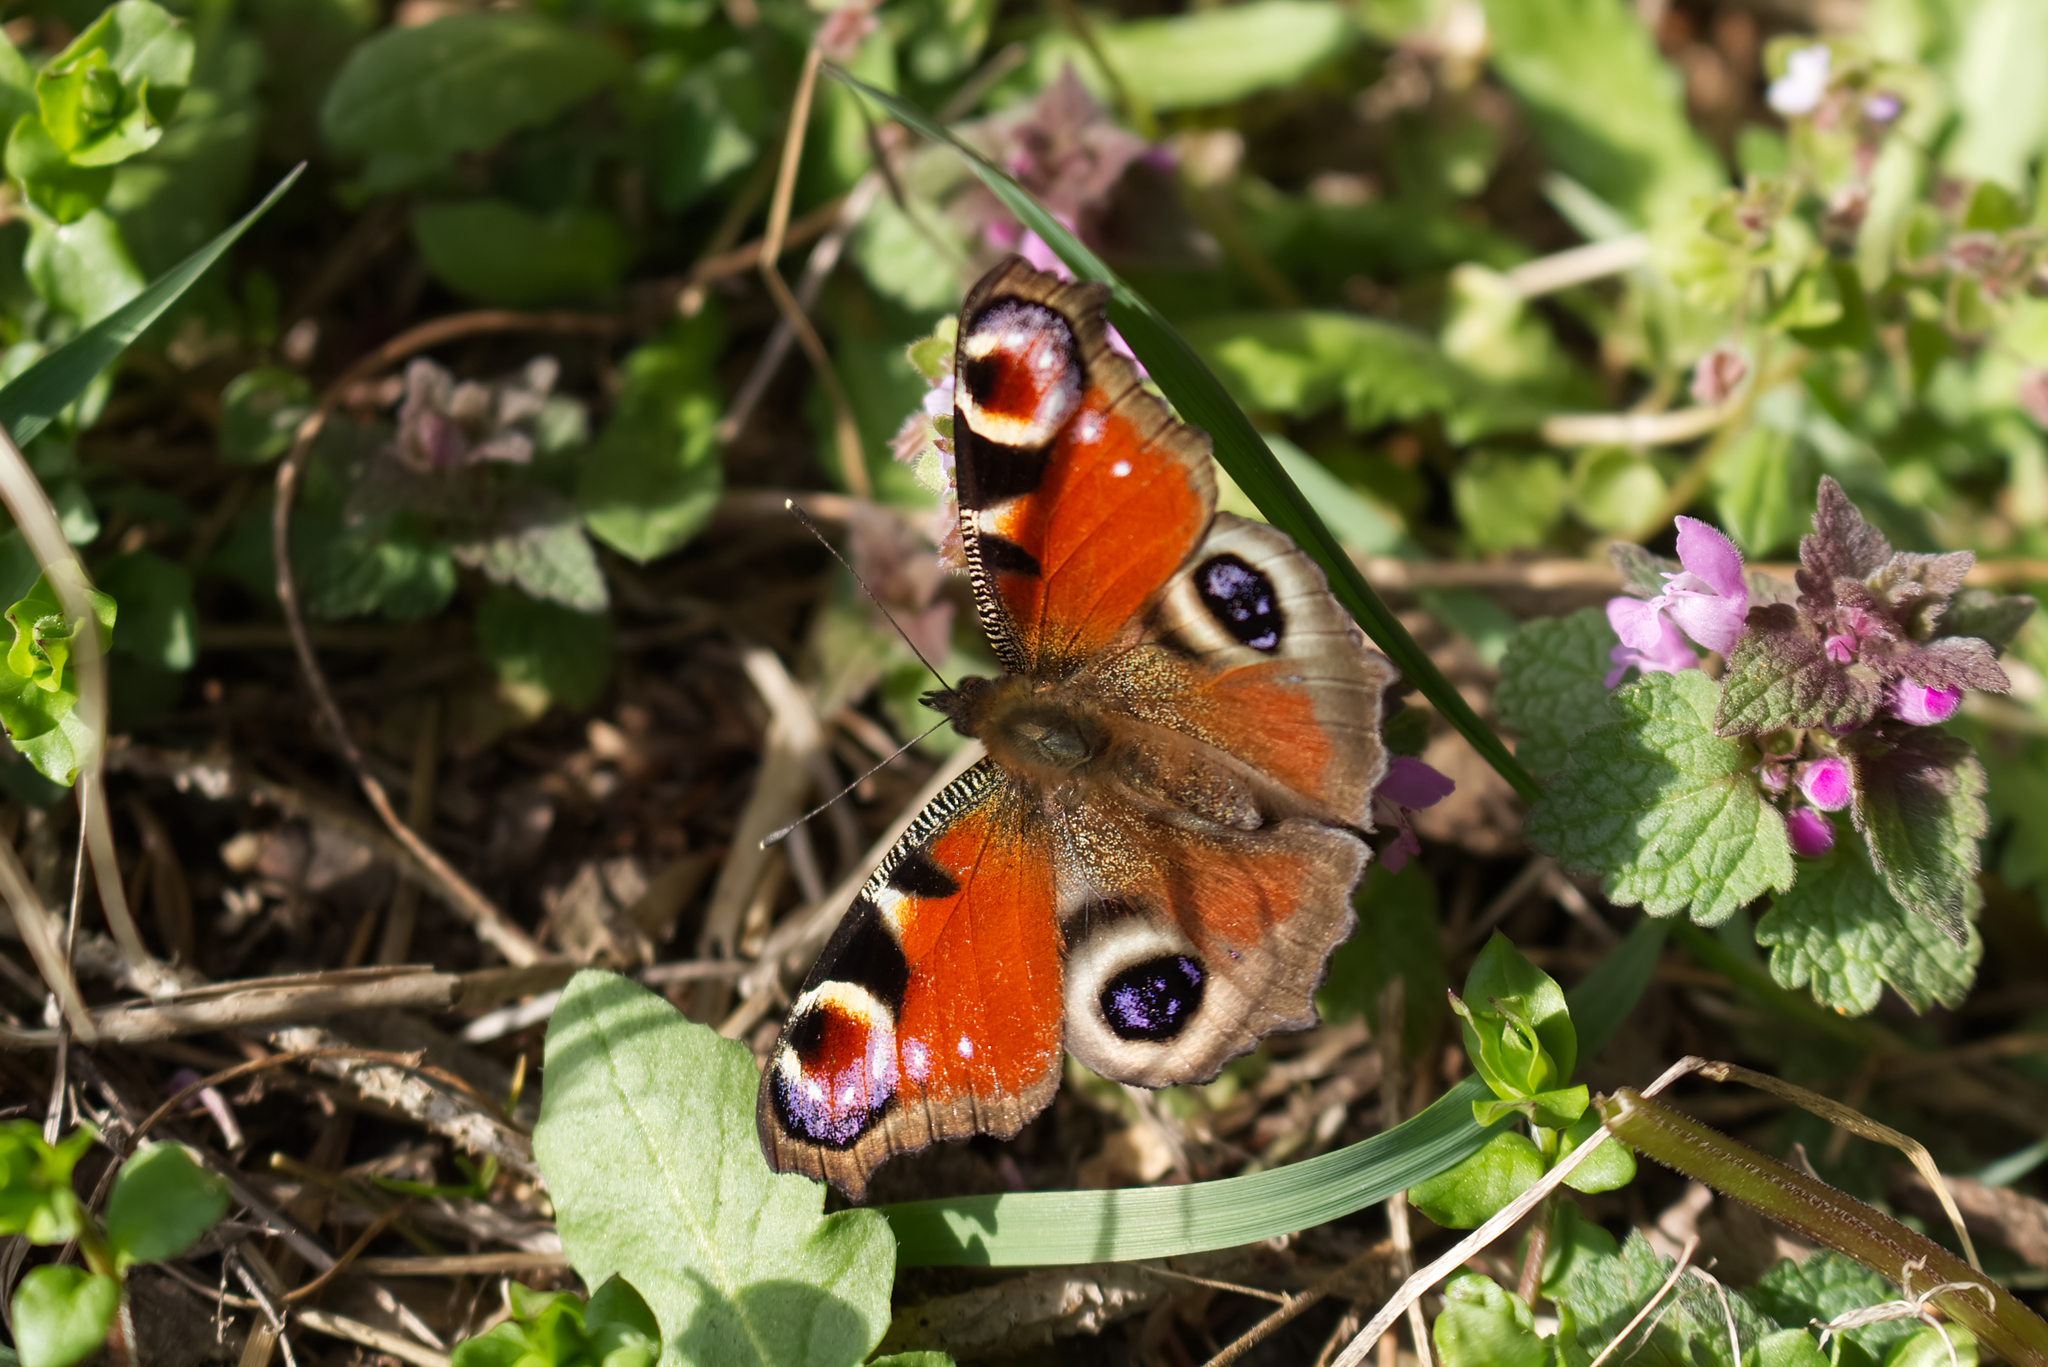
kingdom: Animalia
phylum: Arthropoda
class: Insecta
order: Lepidoptera
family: Nymphalidae
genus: Aglais
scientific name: Aglais io
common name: Peacock
